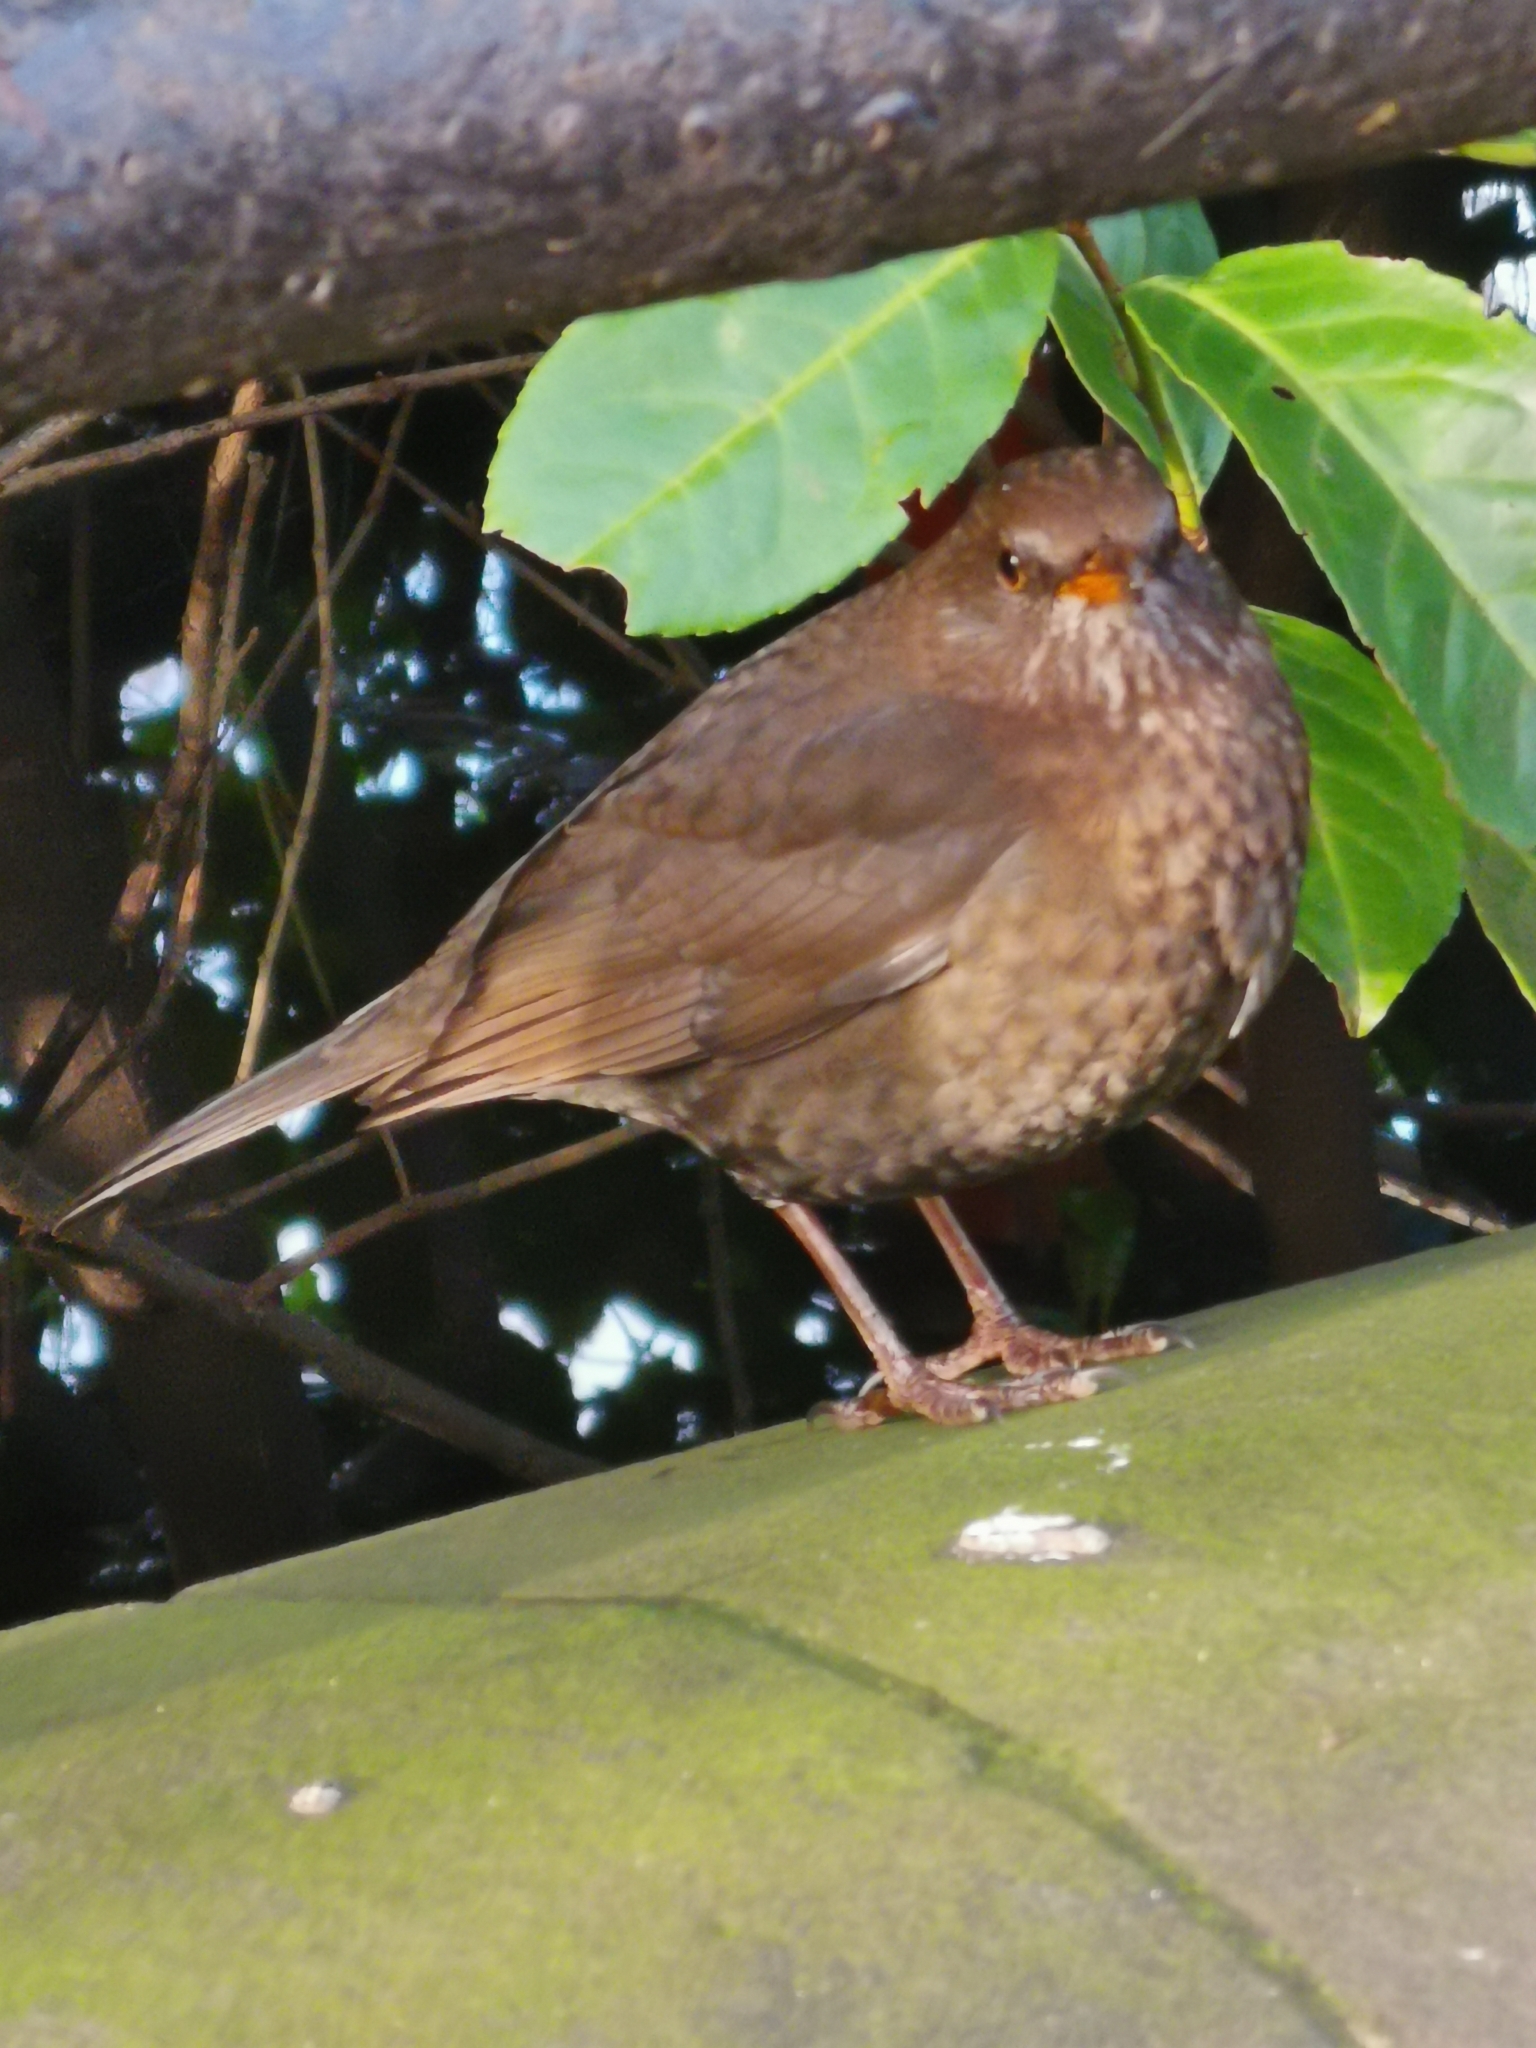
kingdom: Animalia
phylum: Chordata
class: Aves
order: Passeriformes
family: Turdidae
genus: Turdus
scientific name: Turdus merula
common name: Common blackbird
